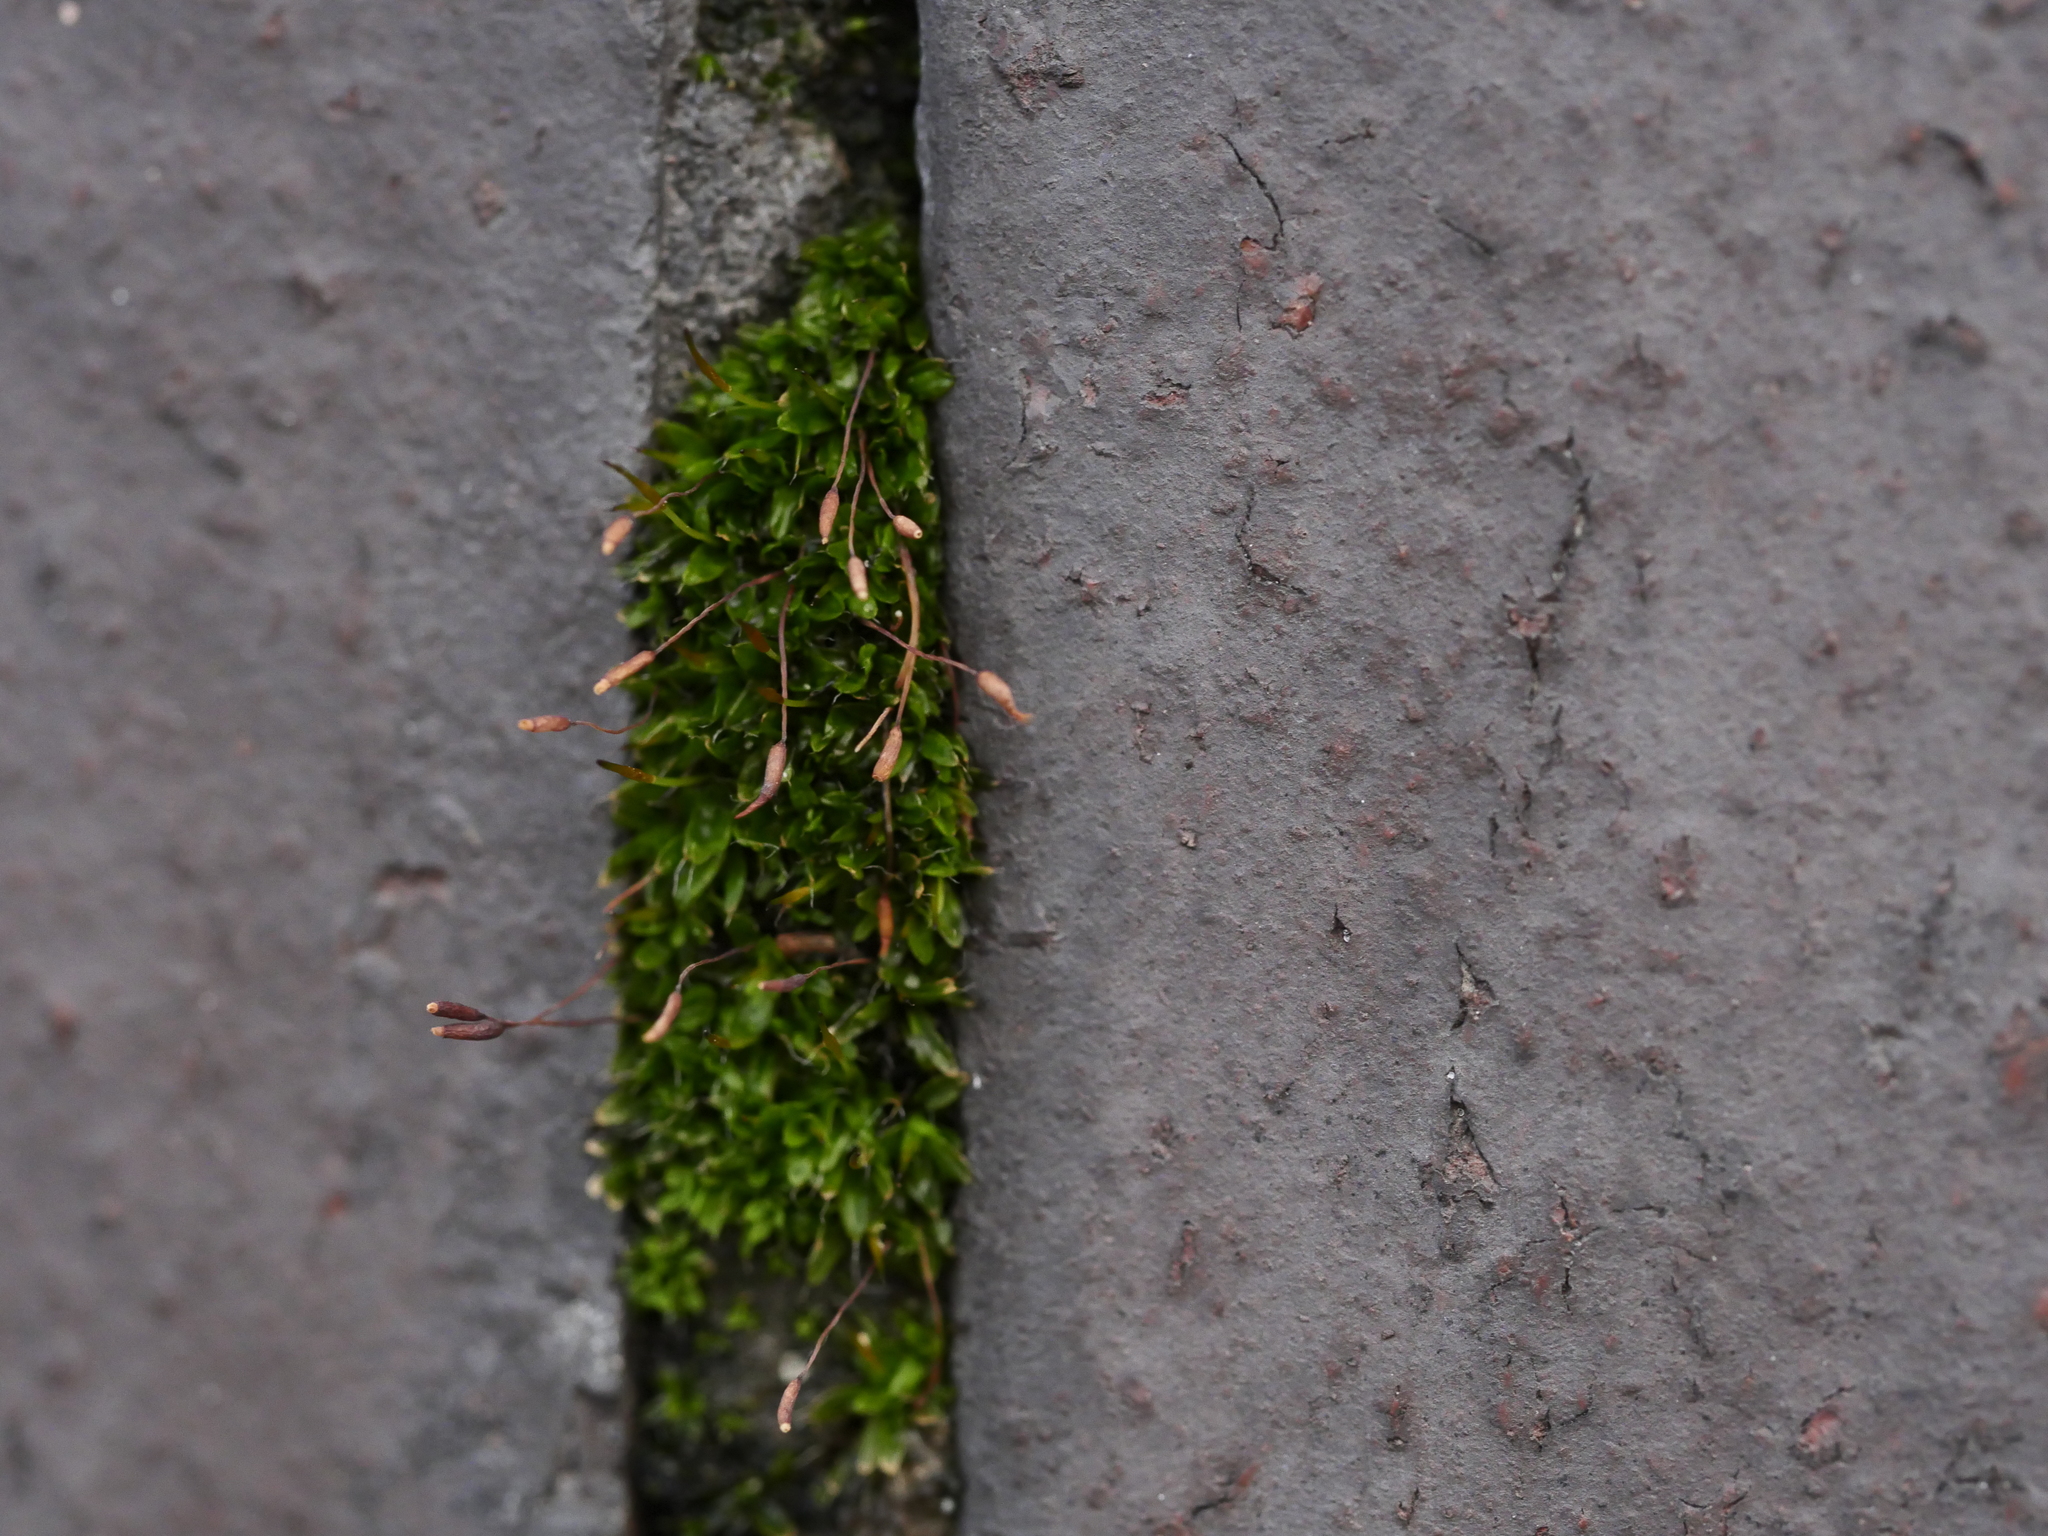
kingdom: Plantae
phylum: Bryophyta
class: Bryopsida
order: Pottiales
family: Pottiaceae
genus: Tortula
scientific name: Tortula muralis
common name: Wall screw-moss
